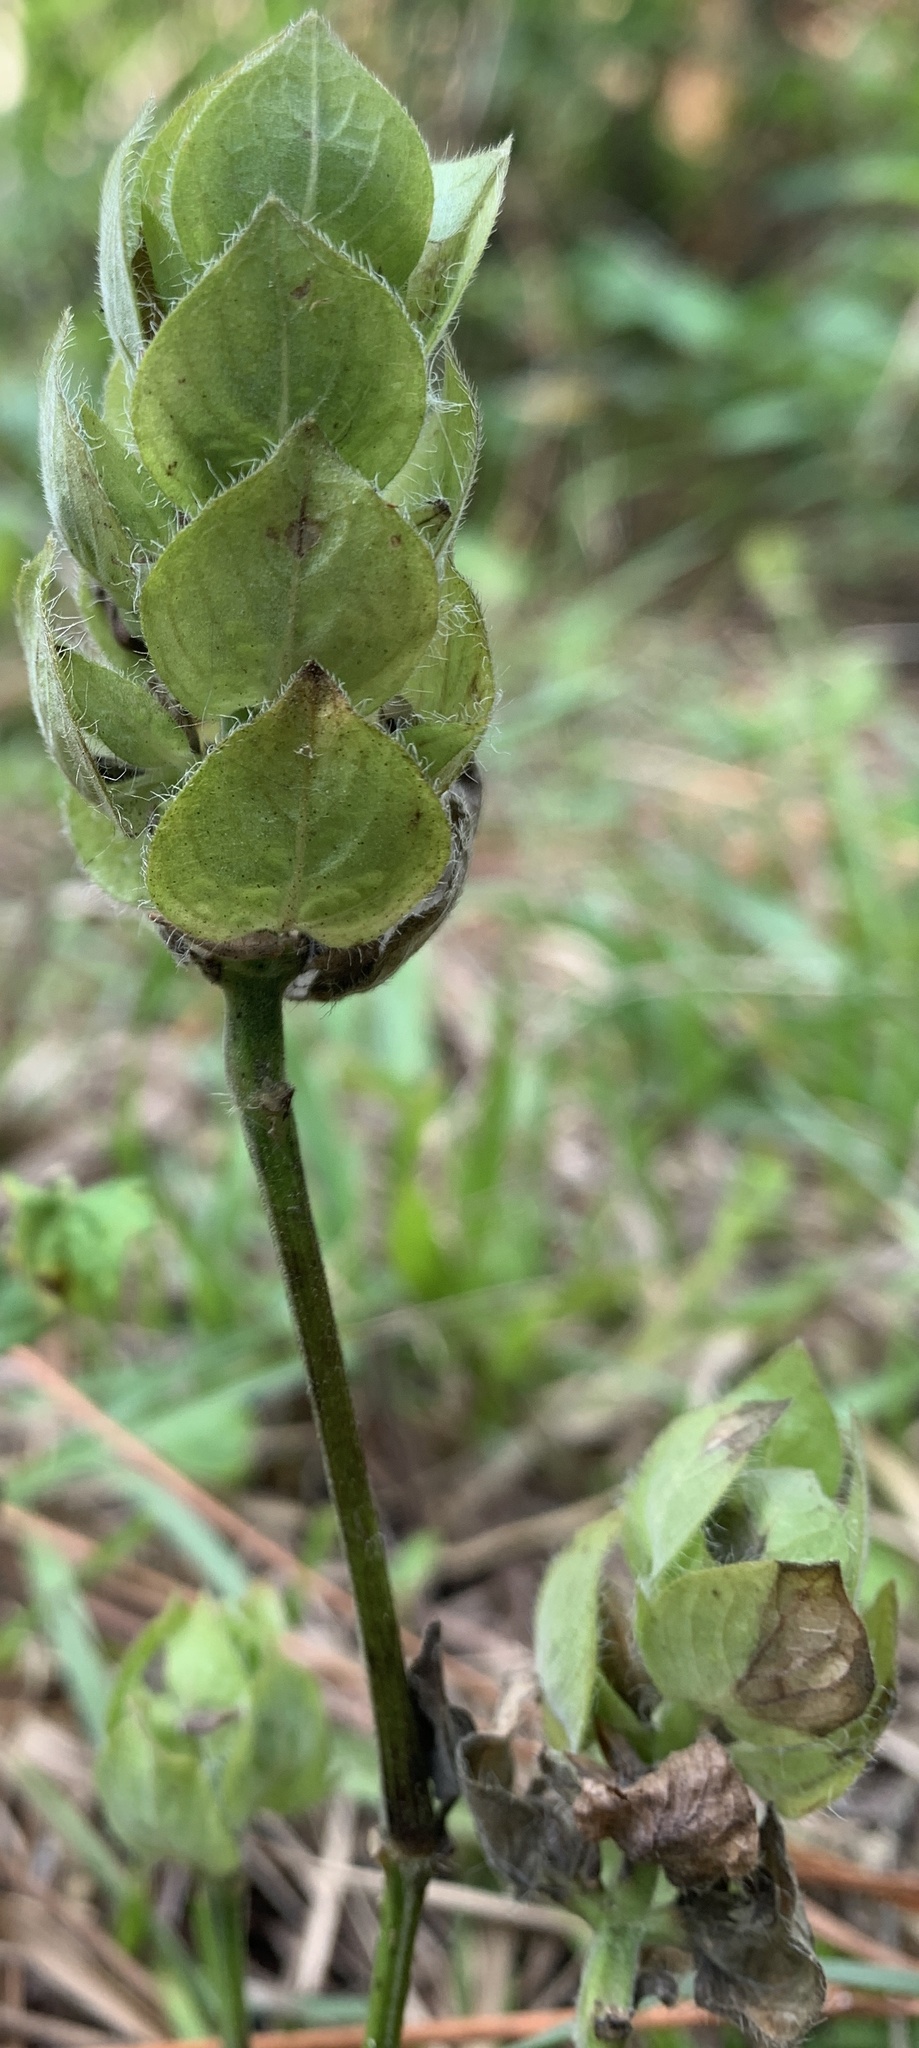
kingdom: Plantae
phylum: Tracheophyta
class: Magnoliopsida
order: Lamiales
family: Acanthaceae
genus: Ruellia
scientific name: Ruellia blechum
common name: Browne's blechum
